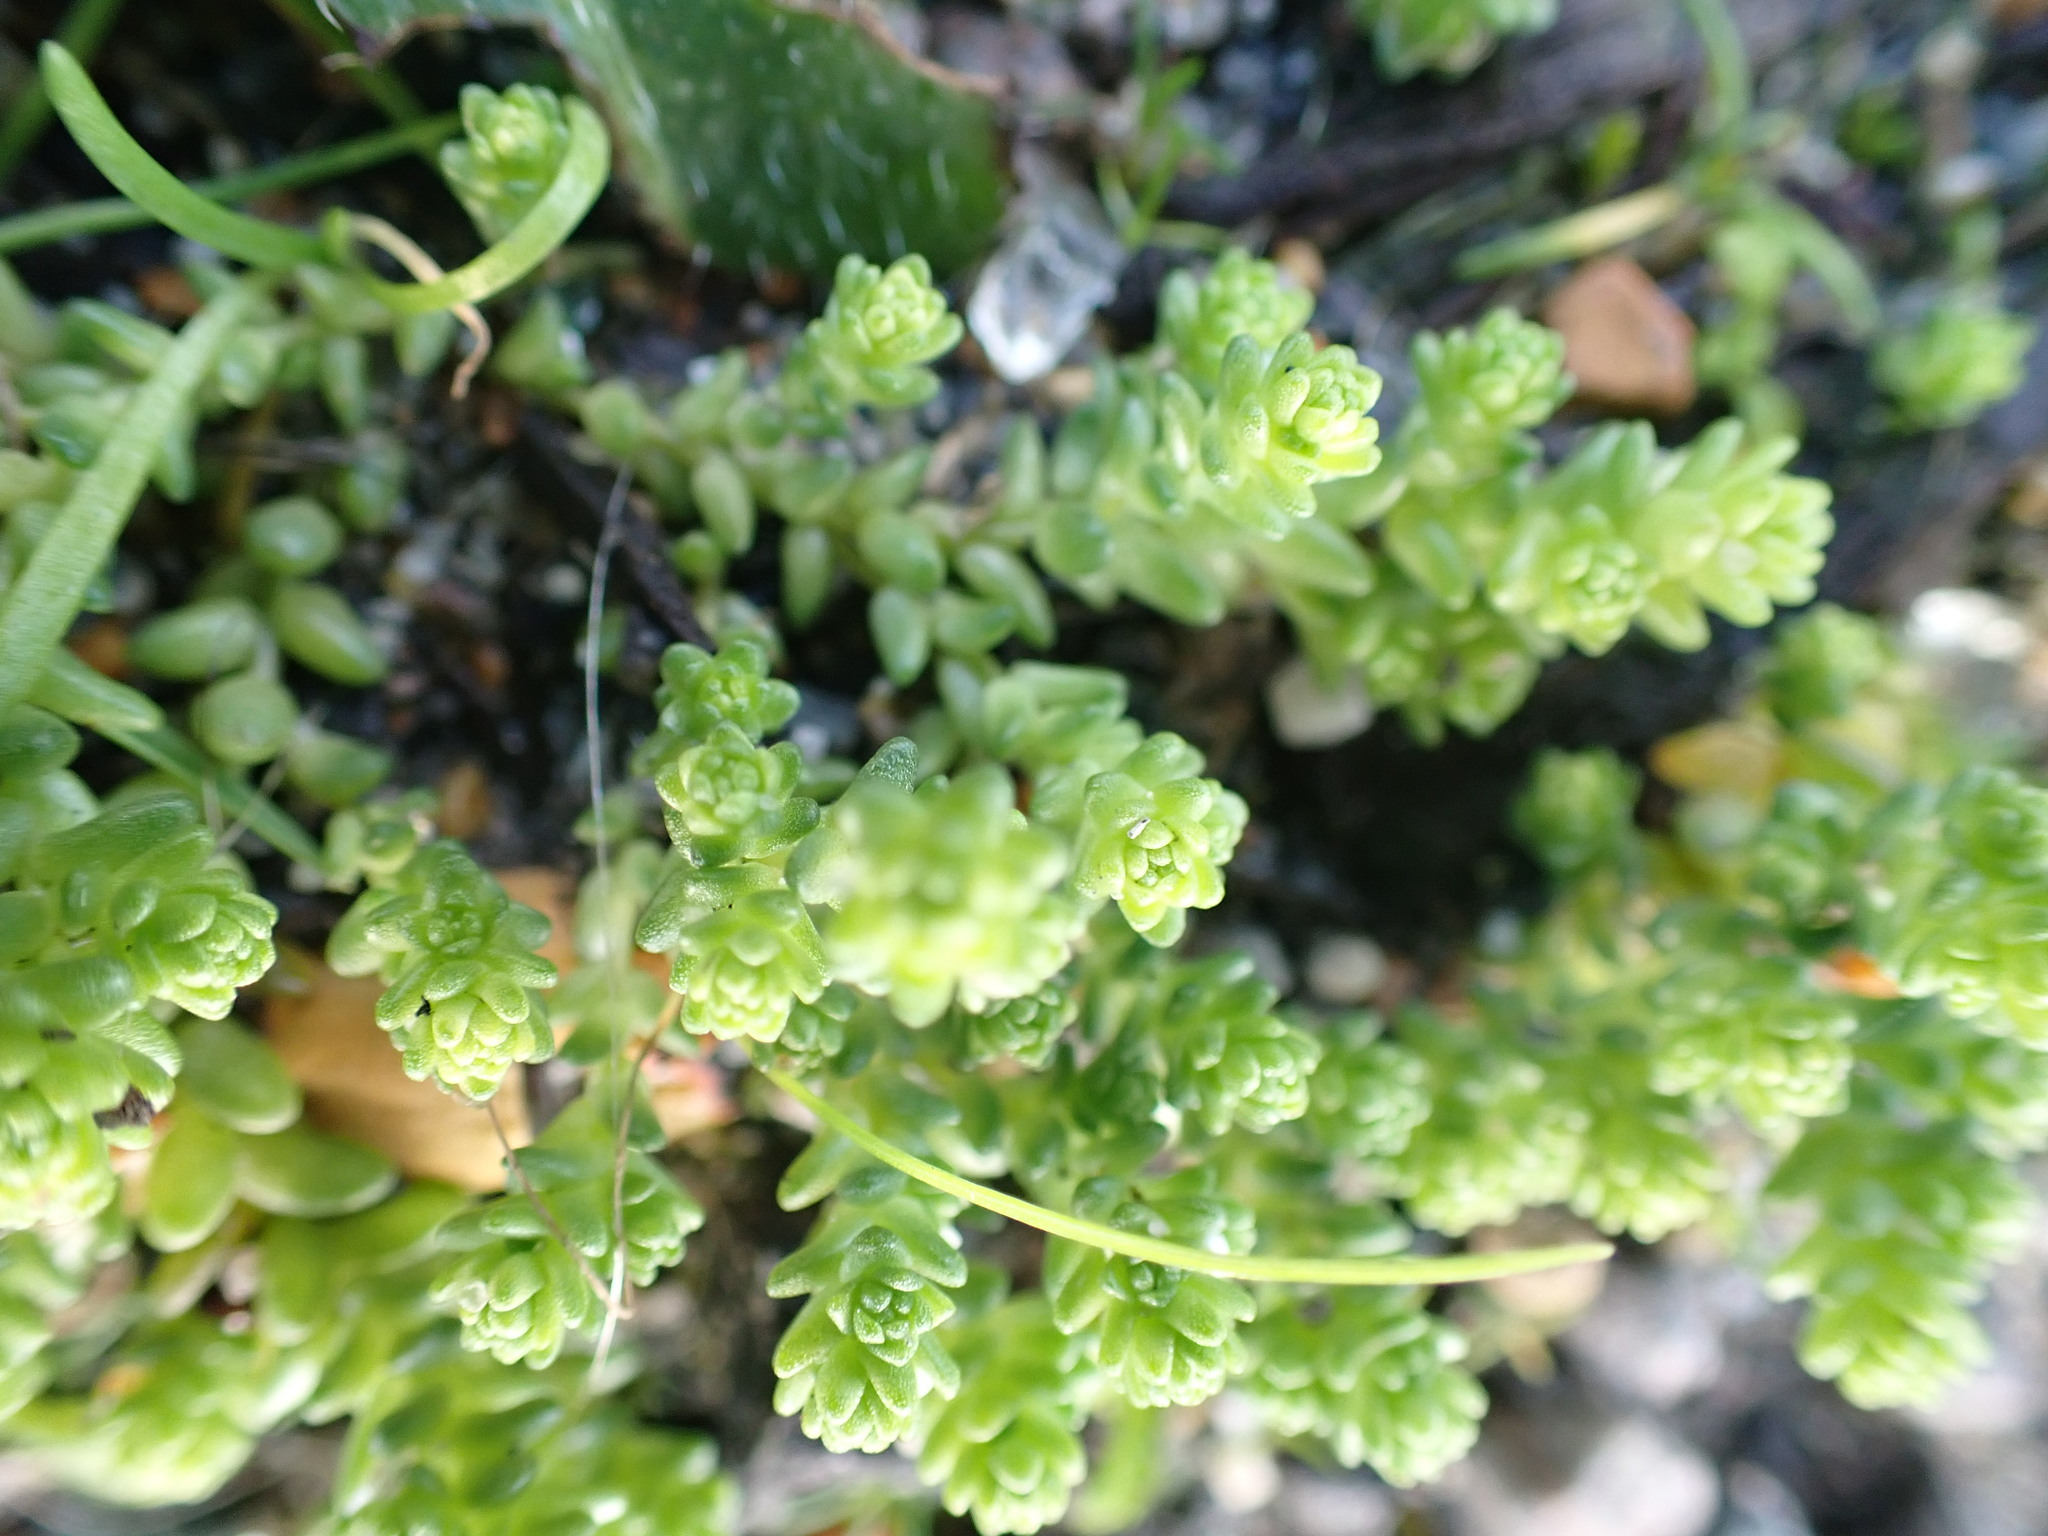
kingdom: Plantae
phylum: Tracheophyta
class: Magnoliopsida
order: Saxifragales
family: Crassulaceae
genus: Sedum
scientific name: Sedum acre
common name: Biting stonecrop
